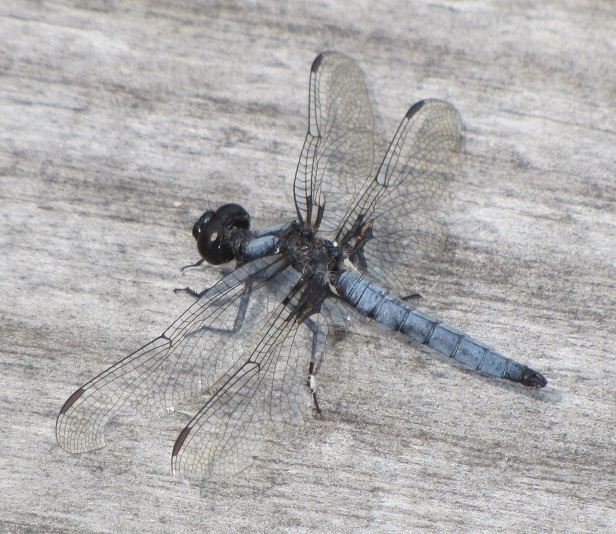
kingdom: Animalia
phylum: Arthropoda
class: Insecta
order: Odonata
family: Libellulidae
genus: Ladona
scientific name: Ladona deplanata
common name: Blue corporal
